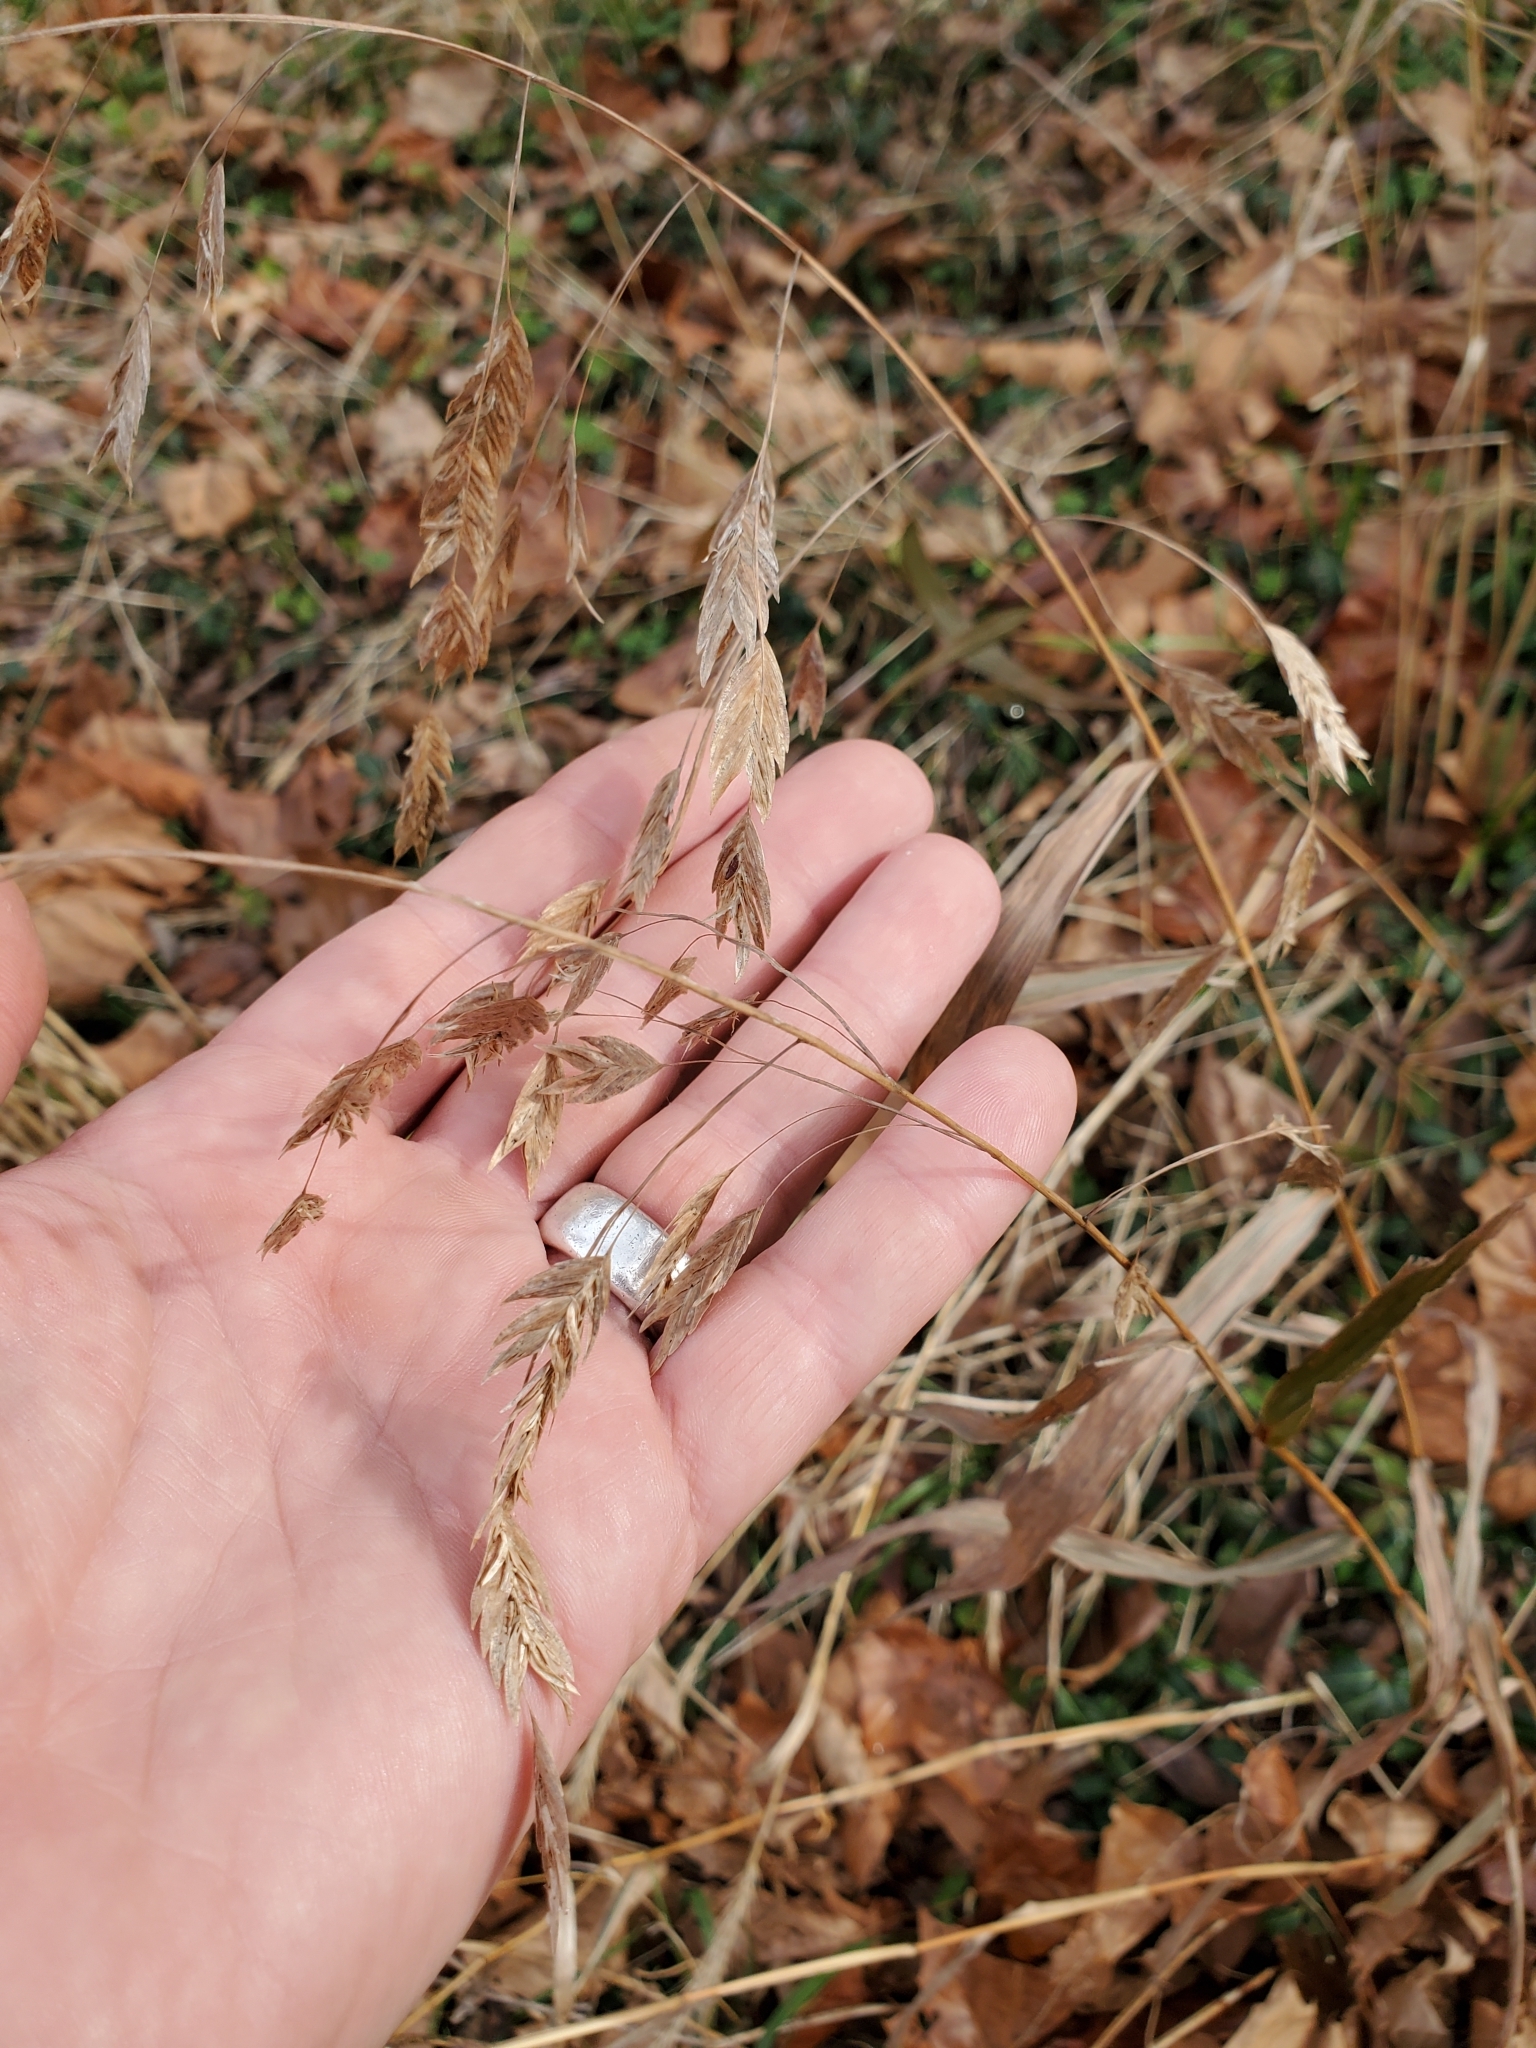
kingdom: Plantae
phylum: Tracheophyta
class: Liliopsida
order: Poales
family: Poaceae
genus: Chasmanthium
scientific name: Chasmanthium latifolium
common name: Broad-leaved chasmanthium
